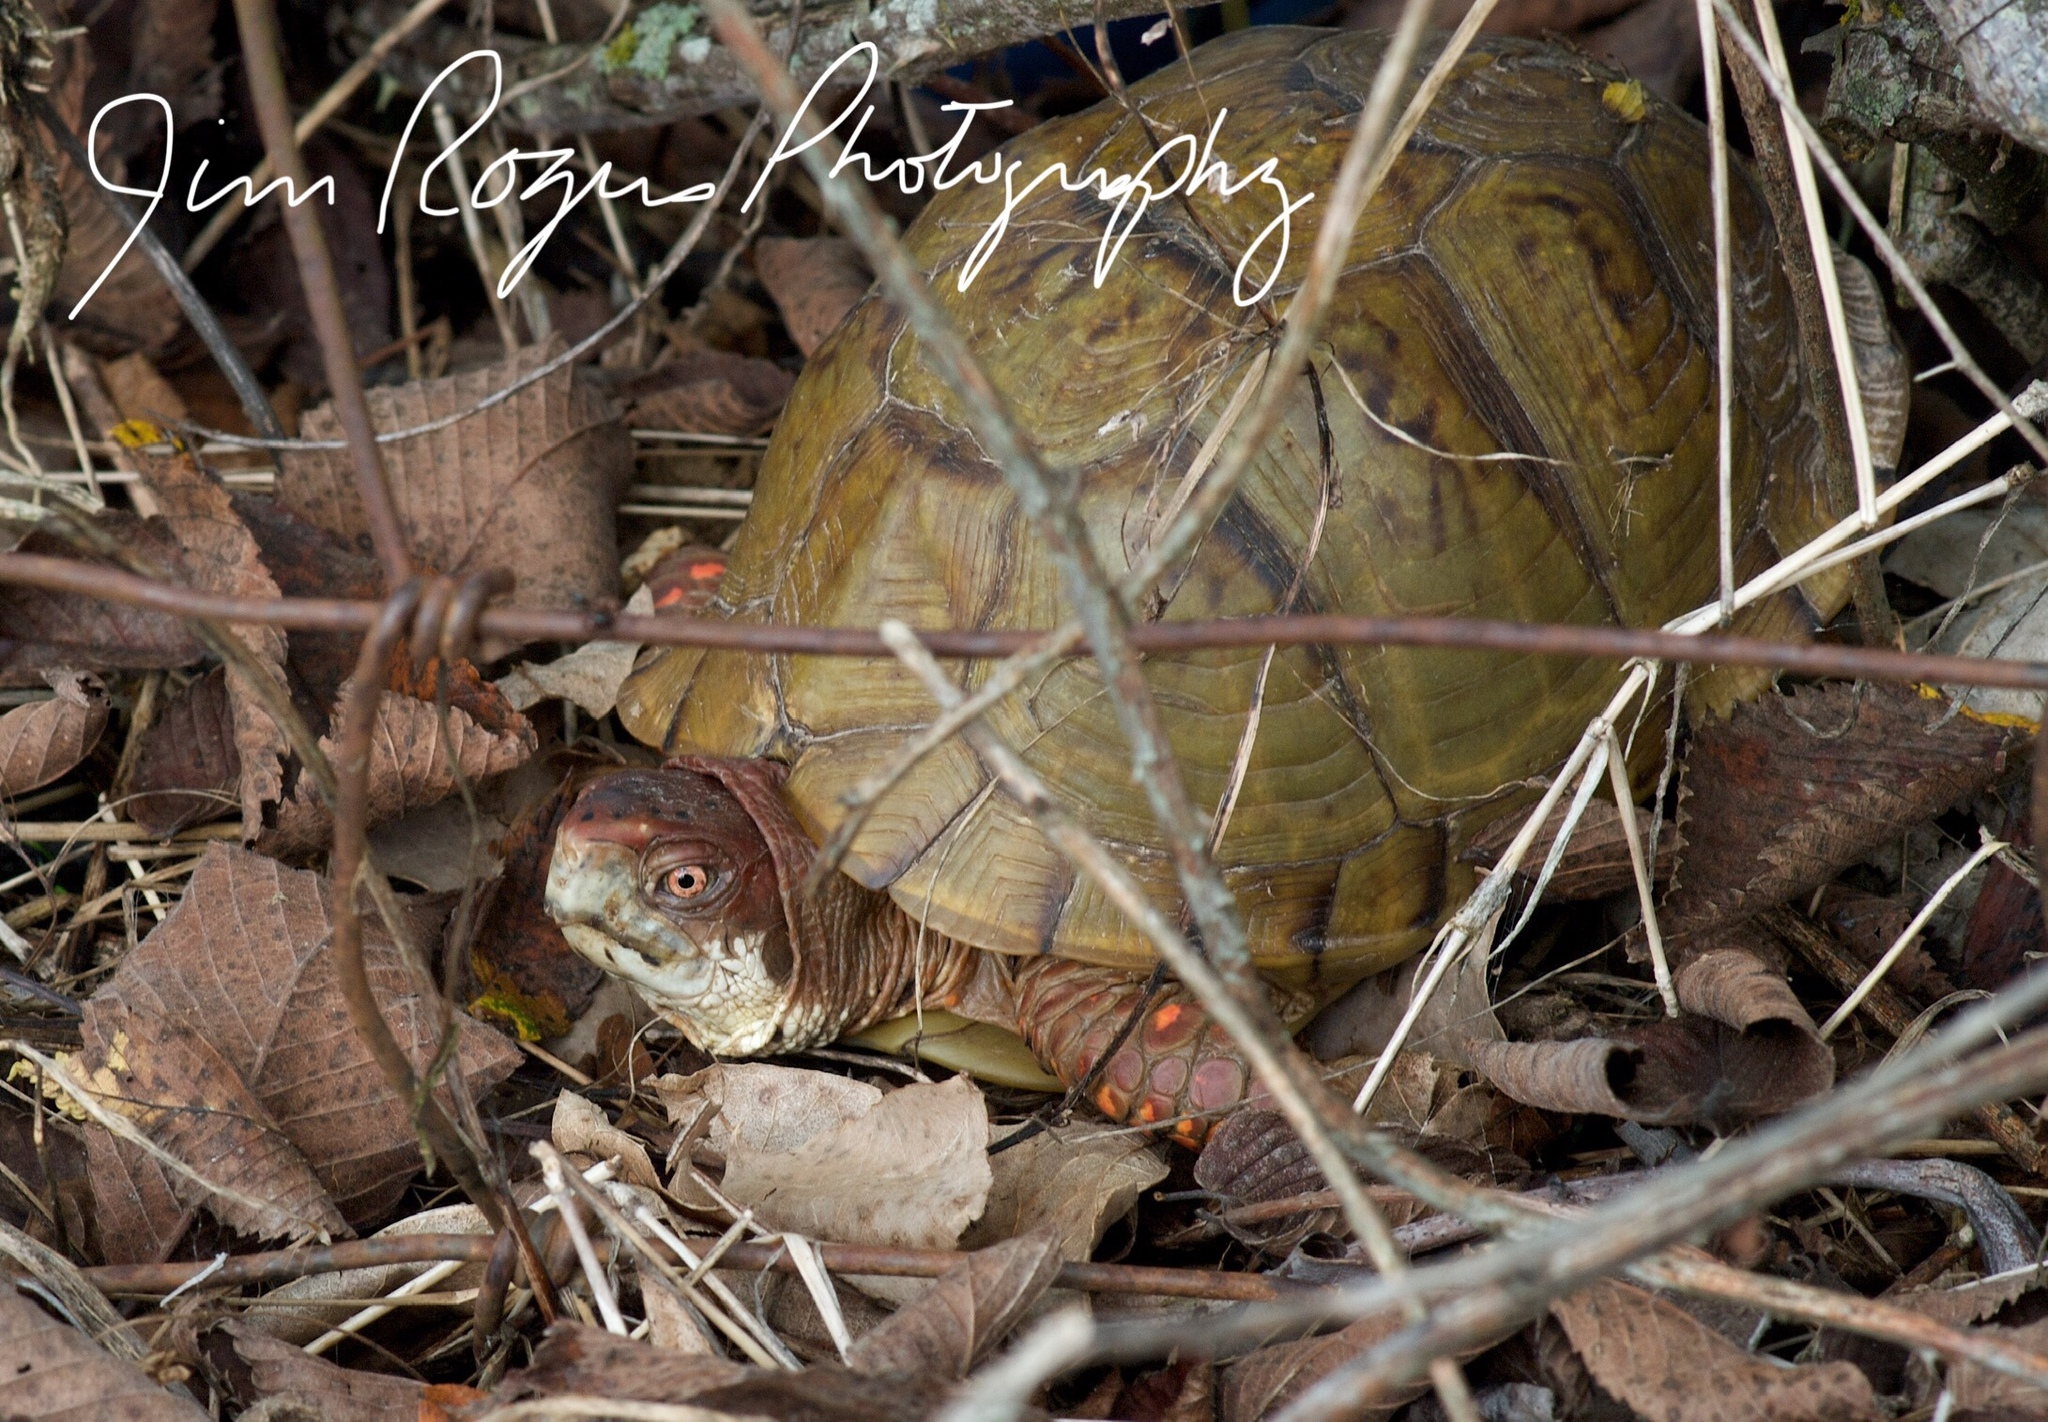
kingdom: Animalia
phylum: Chordata
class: Testudines
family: Emydidae
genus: Terrapene
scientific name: Terrapene carolina
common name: Common box turtle
